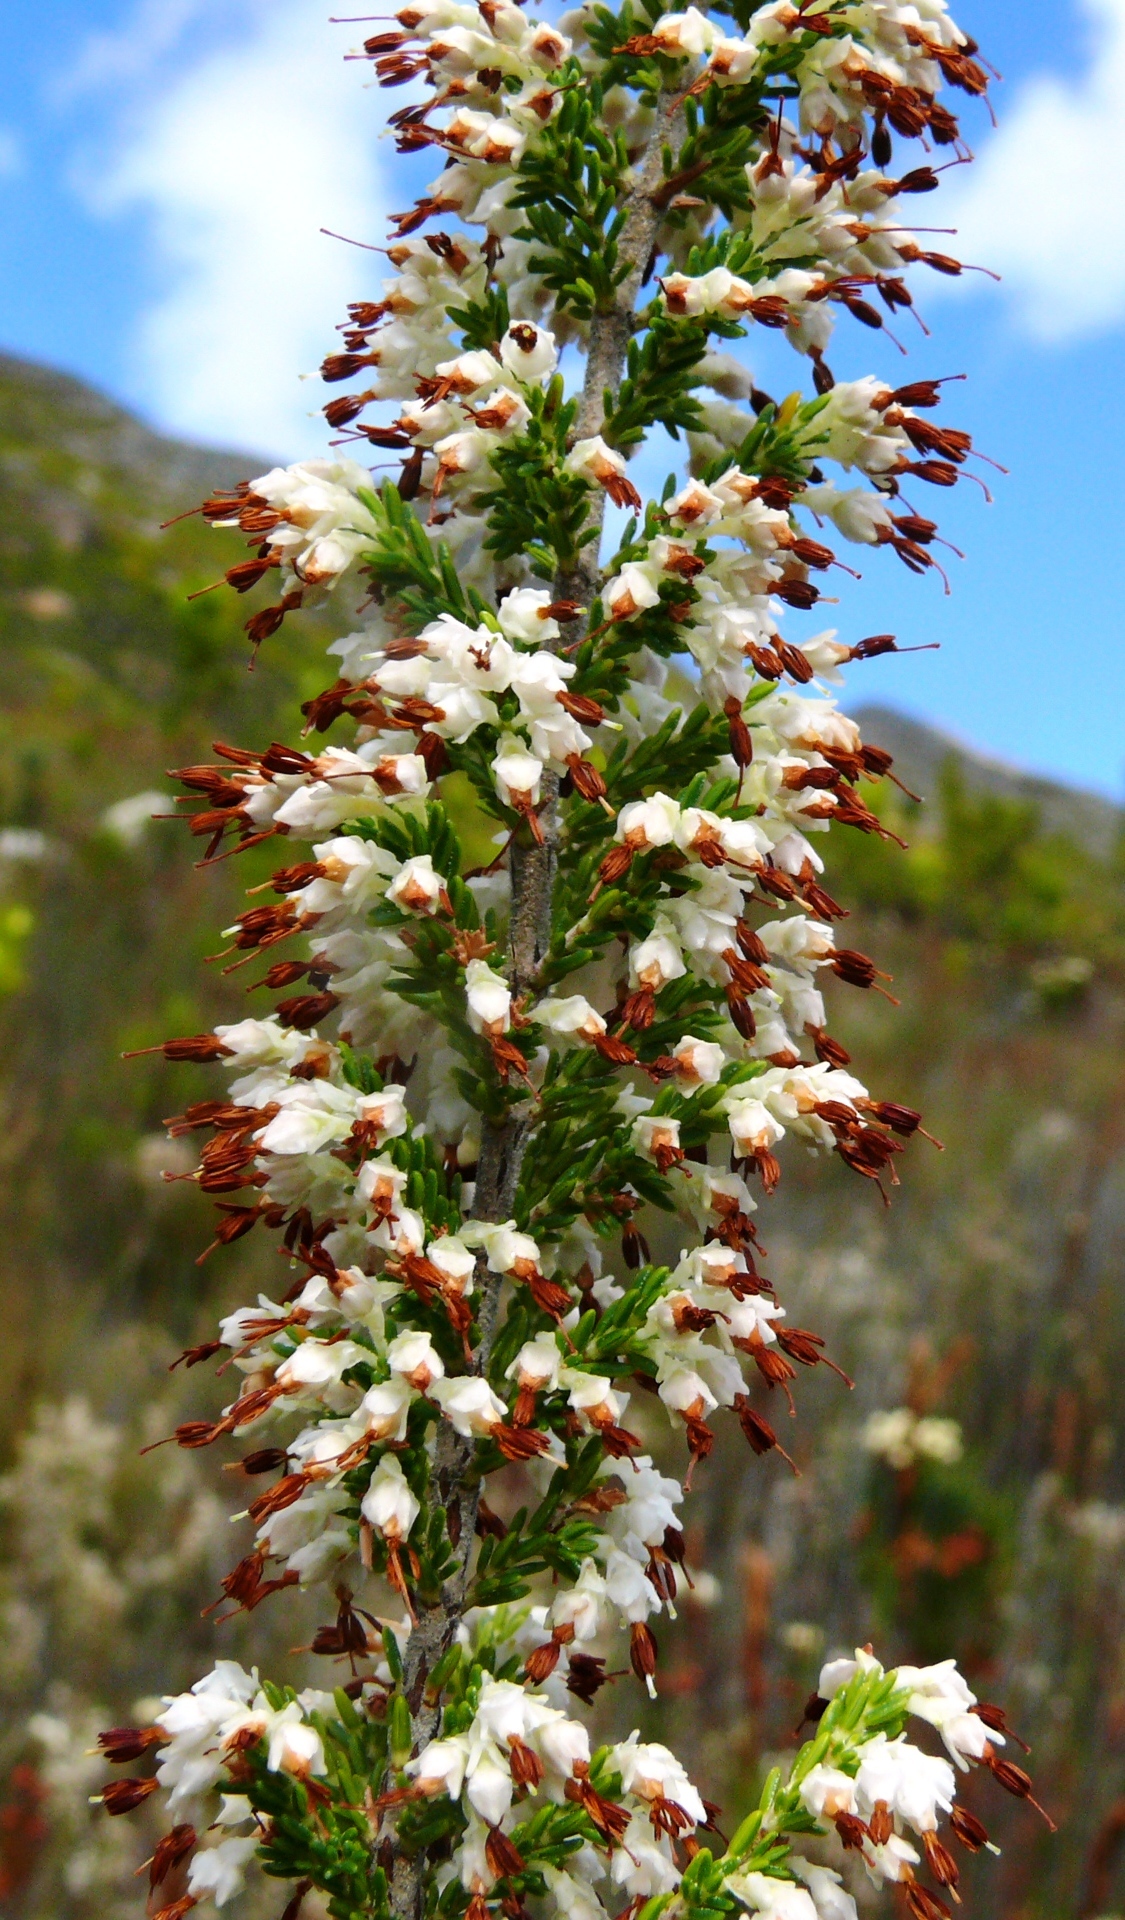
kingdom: Plantae
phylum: Tracheophyta
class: Magnoliopsida
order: Ericales
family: Ericaceae
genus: Erica
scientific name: Erica imbricata
